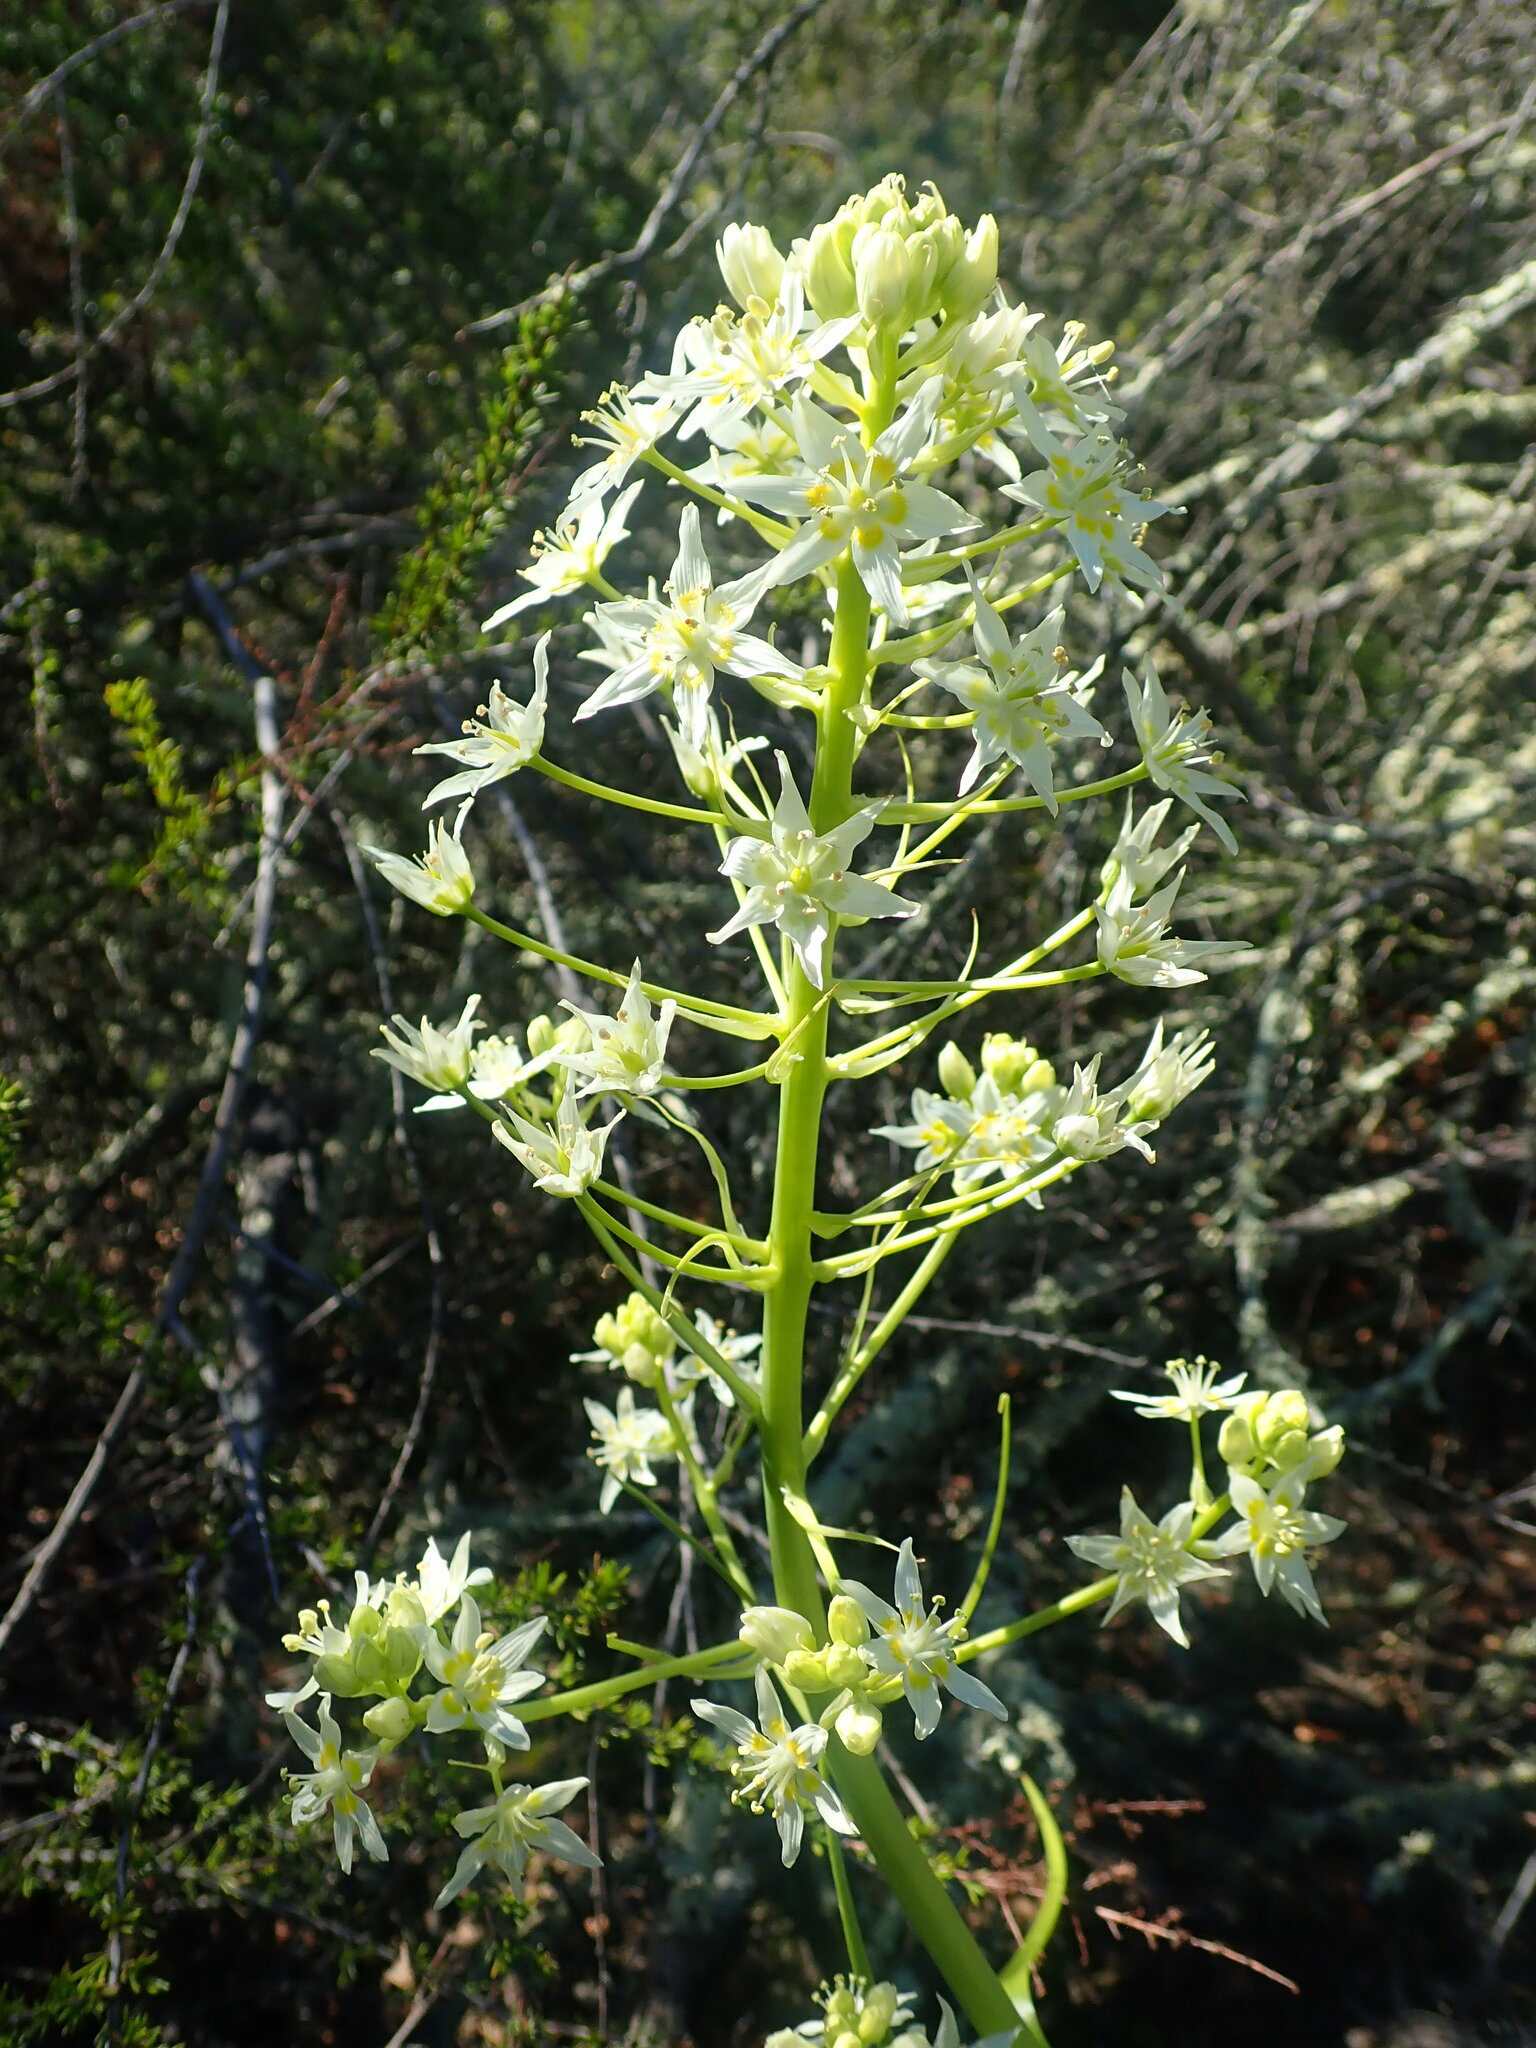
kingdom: Plantae
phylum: Tracheophyta
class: Liliopsida
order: Liliales
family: Melanthiaceae
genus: Toxicoscordion
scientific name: Toxicoscordion fremontii
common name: Fremont's death camas
